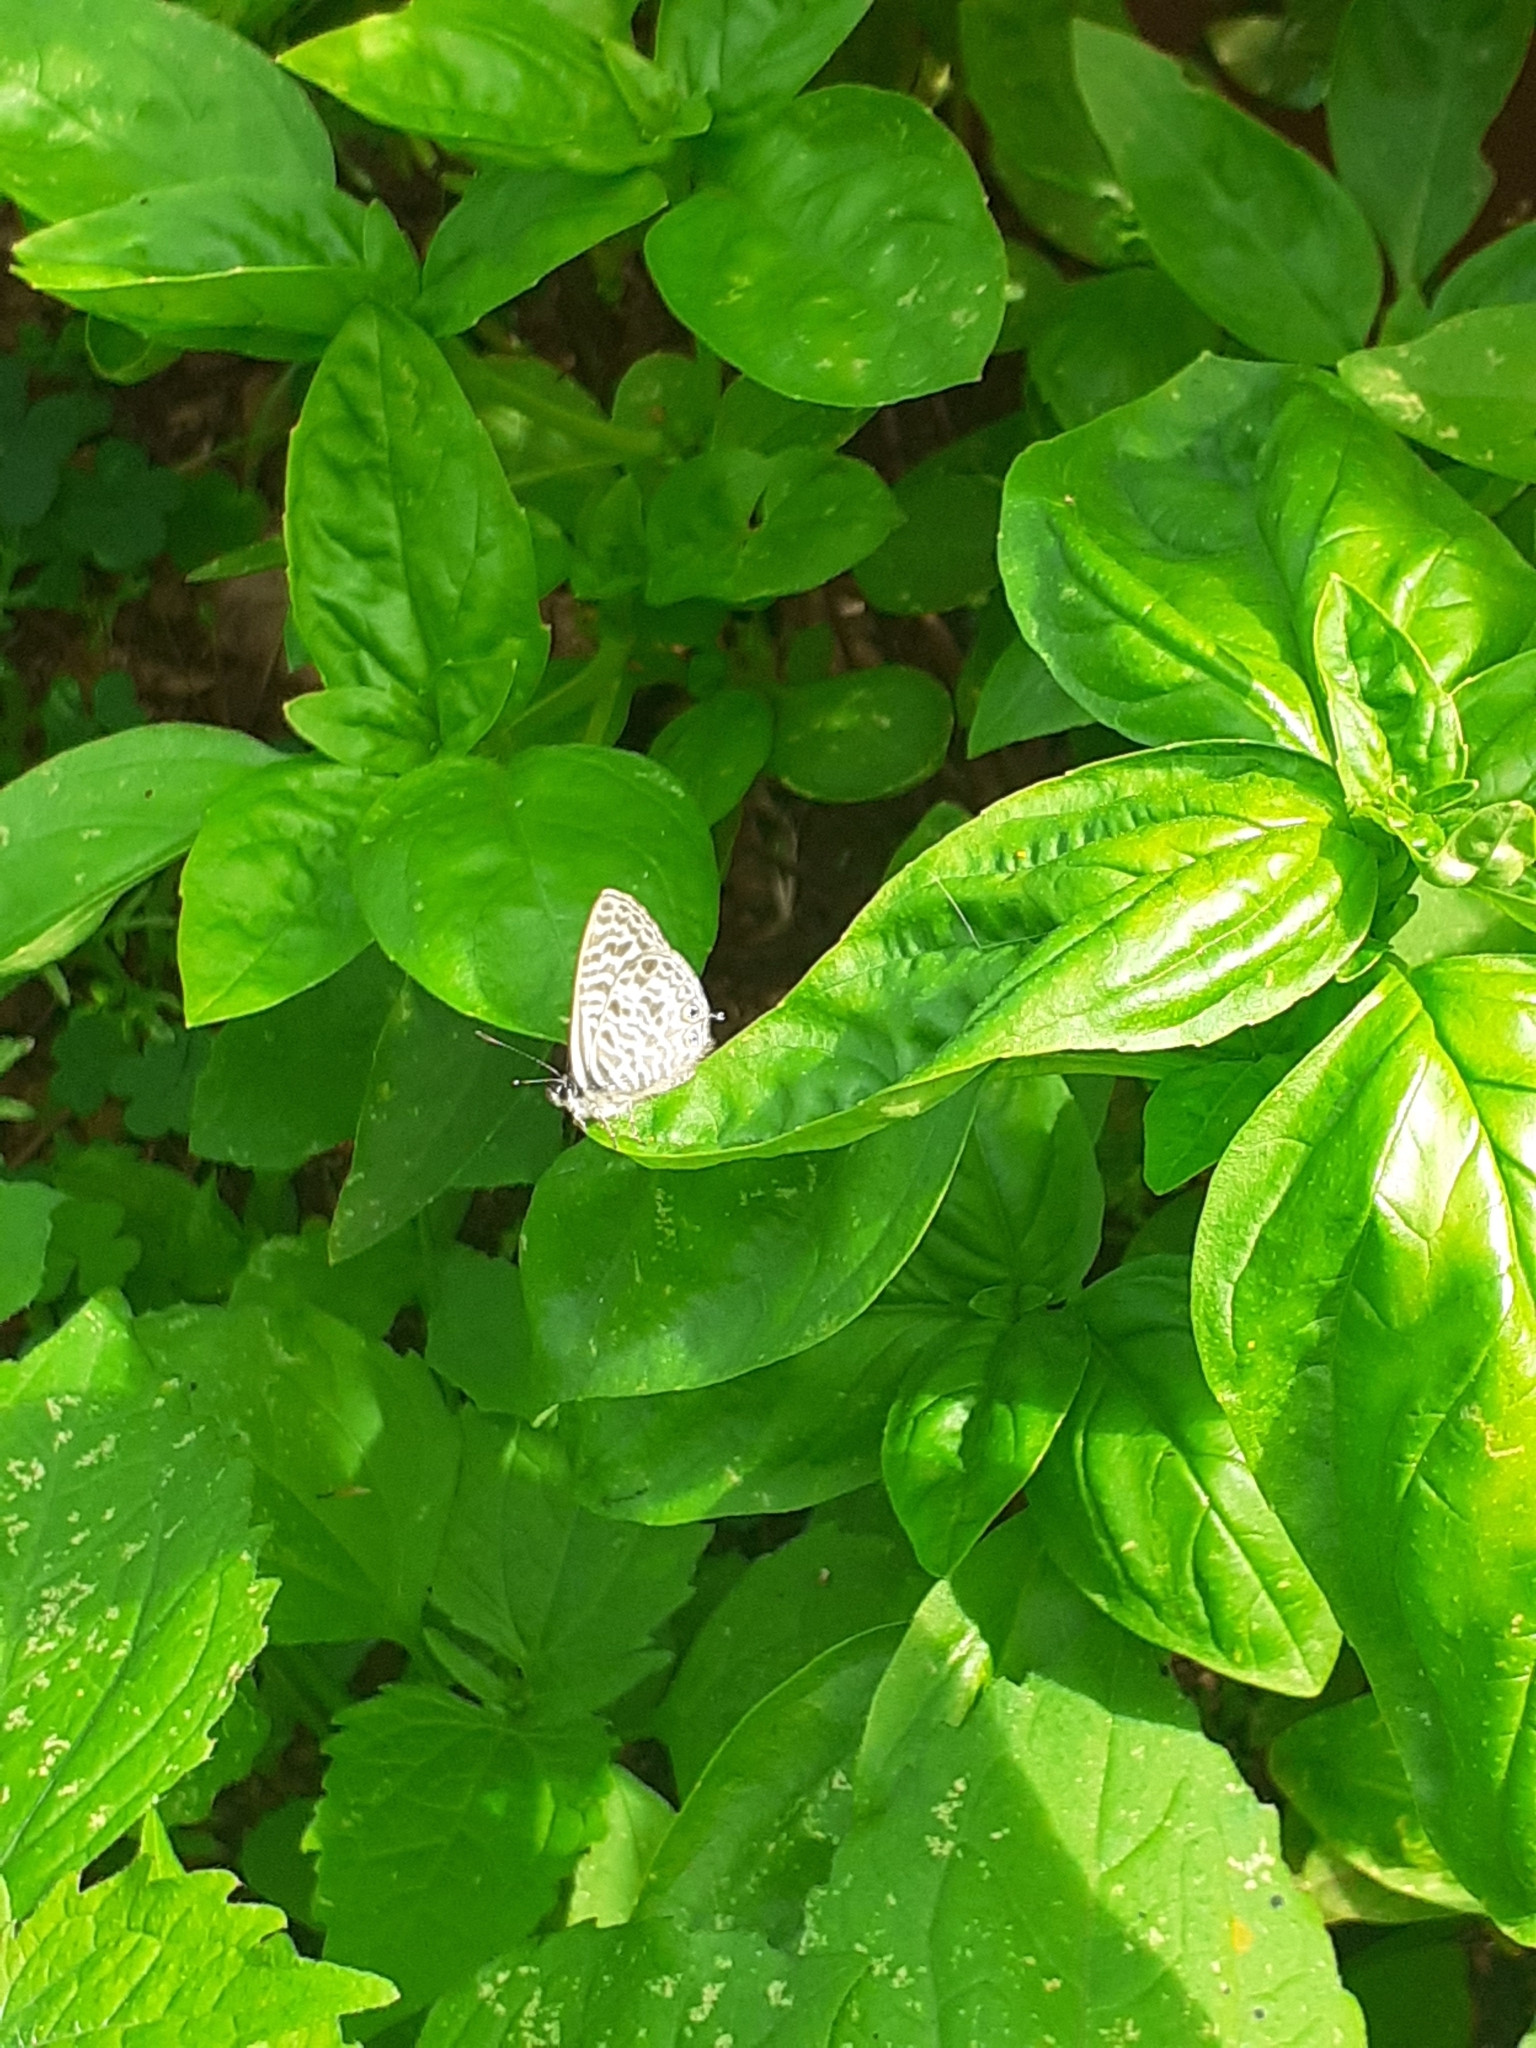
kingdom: Animalia
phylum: Arthropoda
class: Insecta
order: Lepidoptera
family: Lycaenidae
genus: Leptotes
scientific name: Leptotes pirithous
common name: Lang's short-tailed blue
